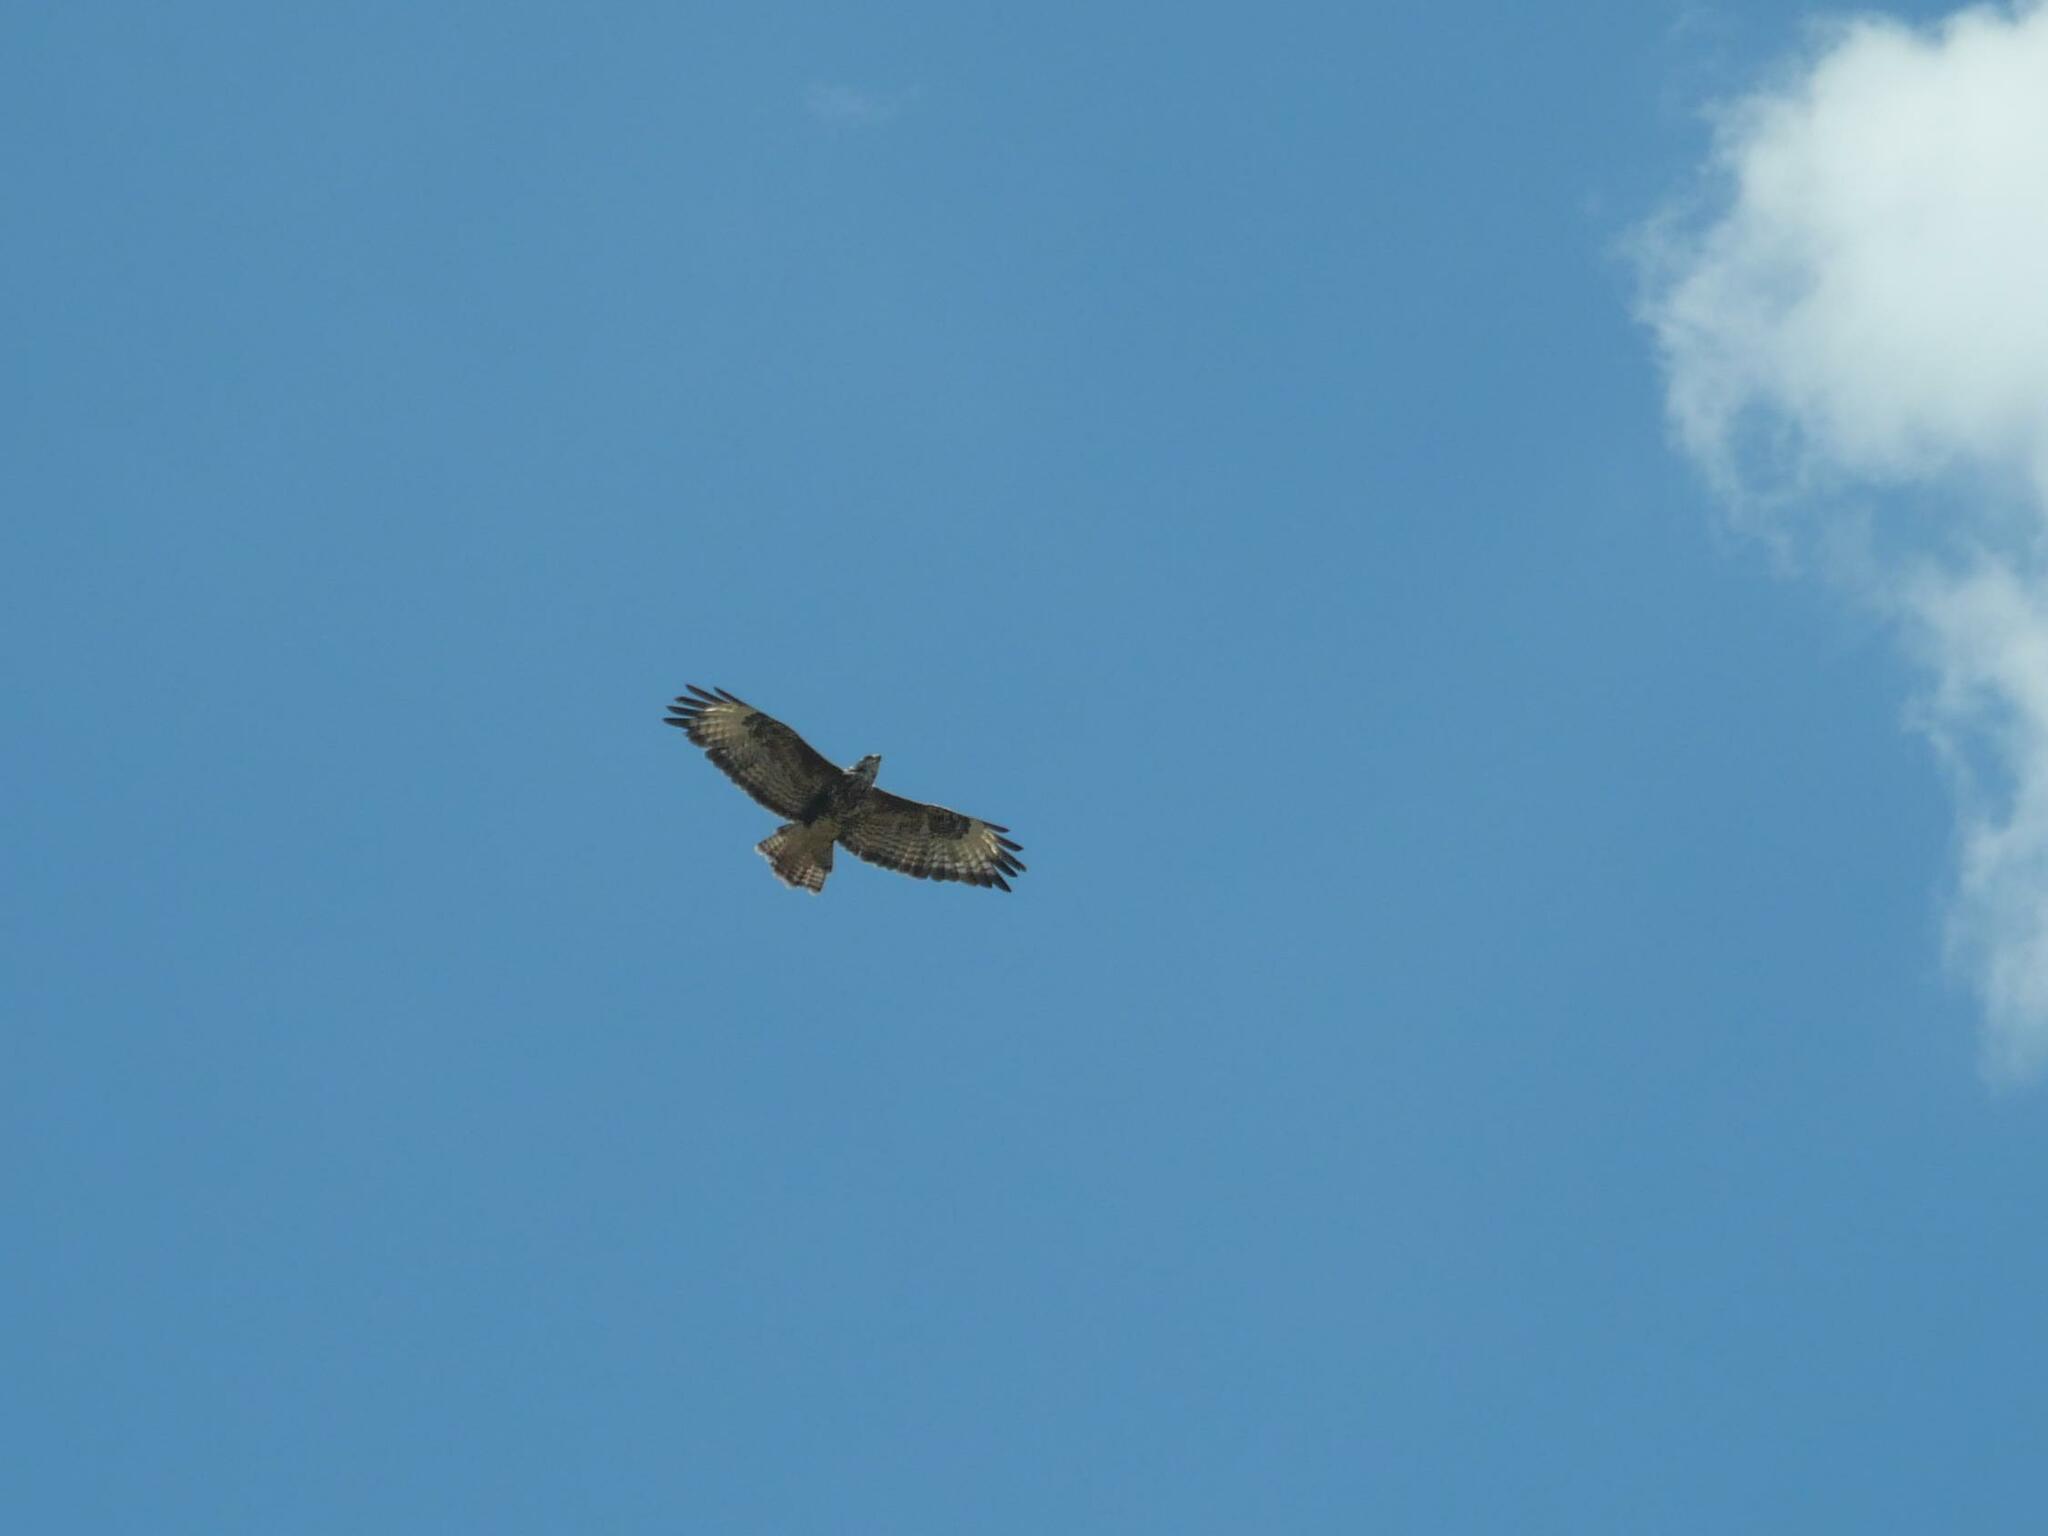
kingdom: Animalia
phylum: Chordata
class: Aves
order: Accipitriformes
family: Accipitridae
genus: Buteo
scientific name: Buteo buteo
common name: Common buzzard
